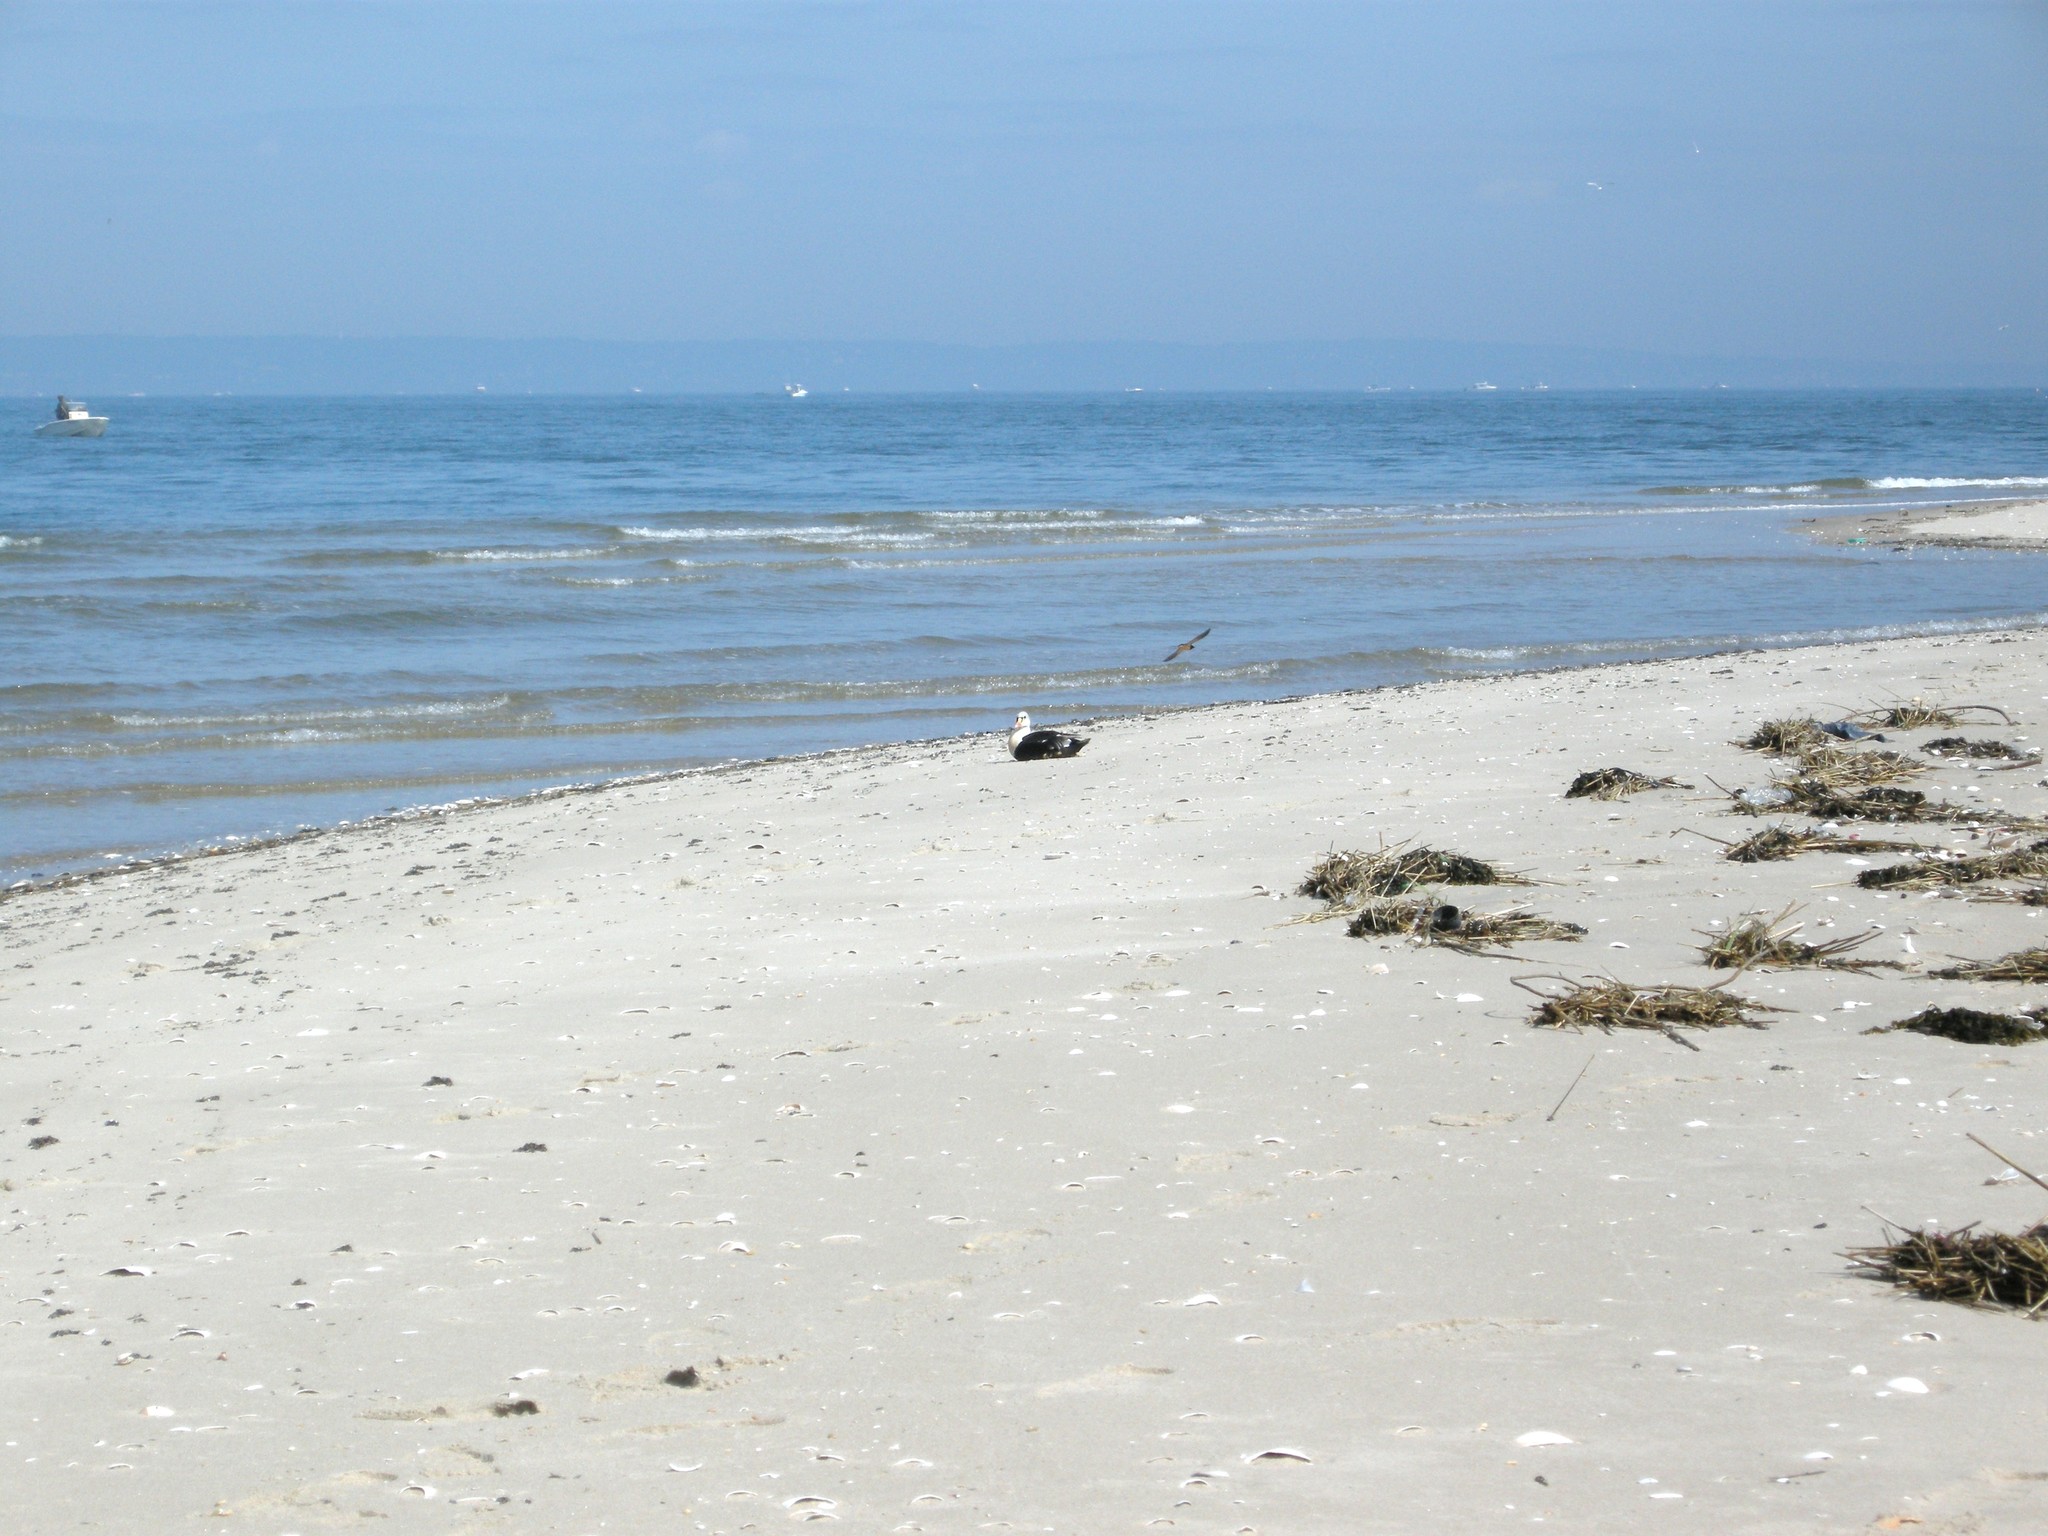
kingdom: Animalia
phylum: Chordata
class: Aves
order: Anseriformes
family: Anatidae
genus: Somateria
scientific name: Somateria spectabilis
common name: King eider
